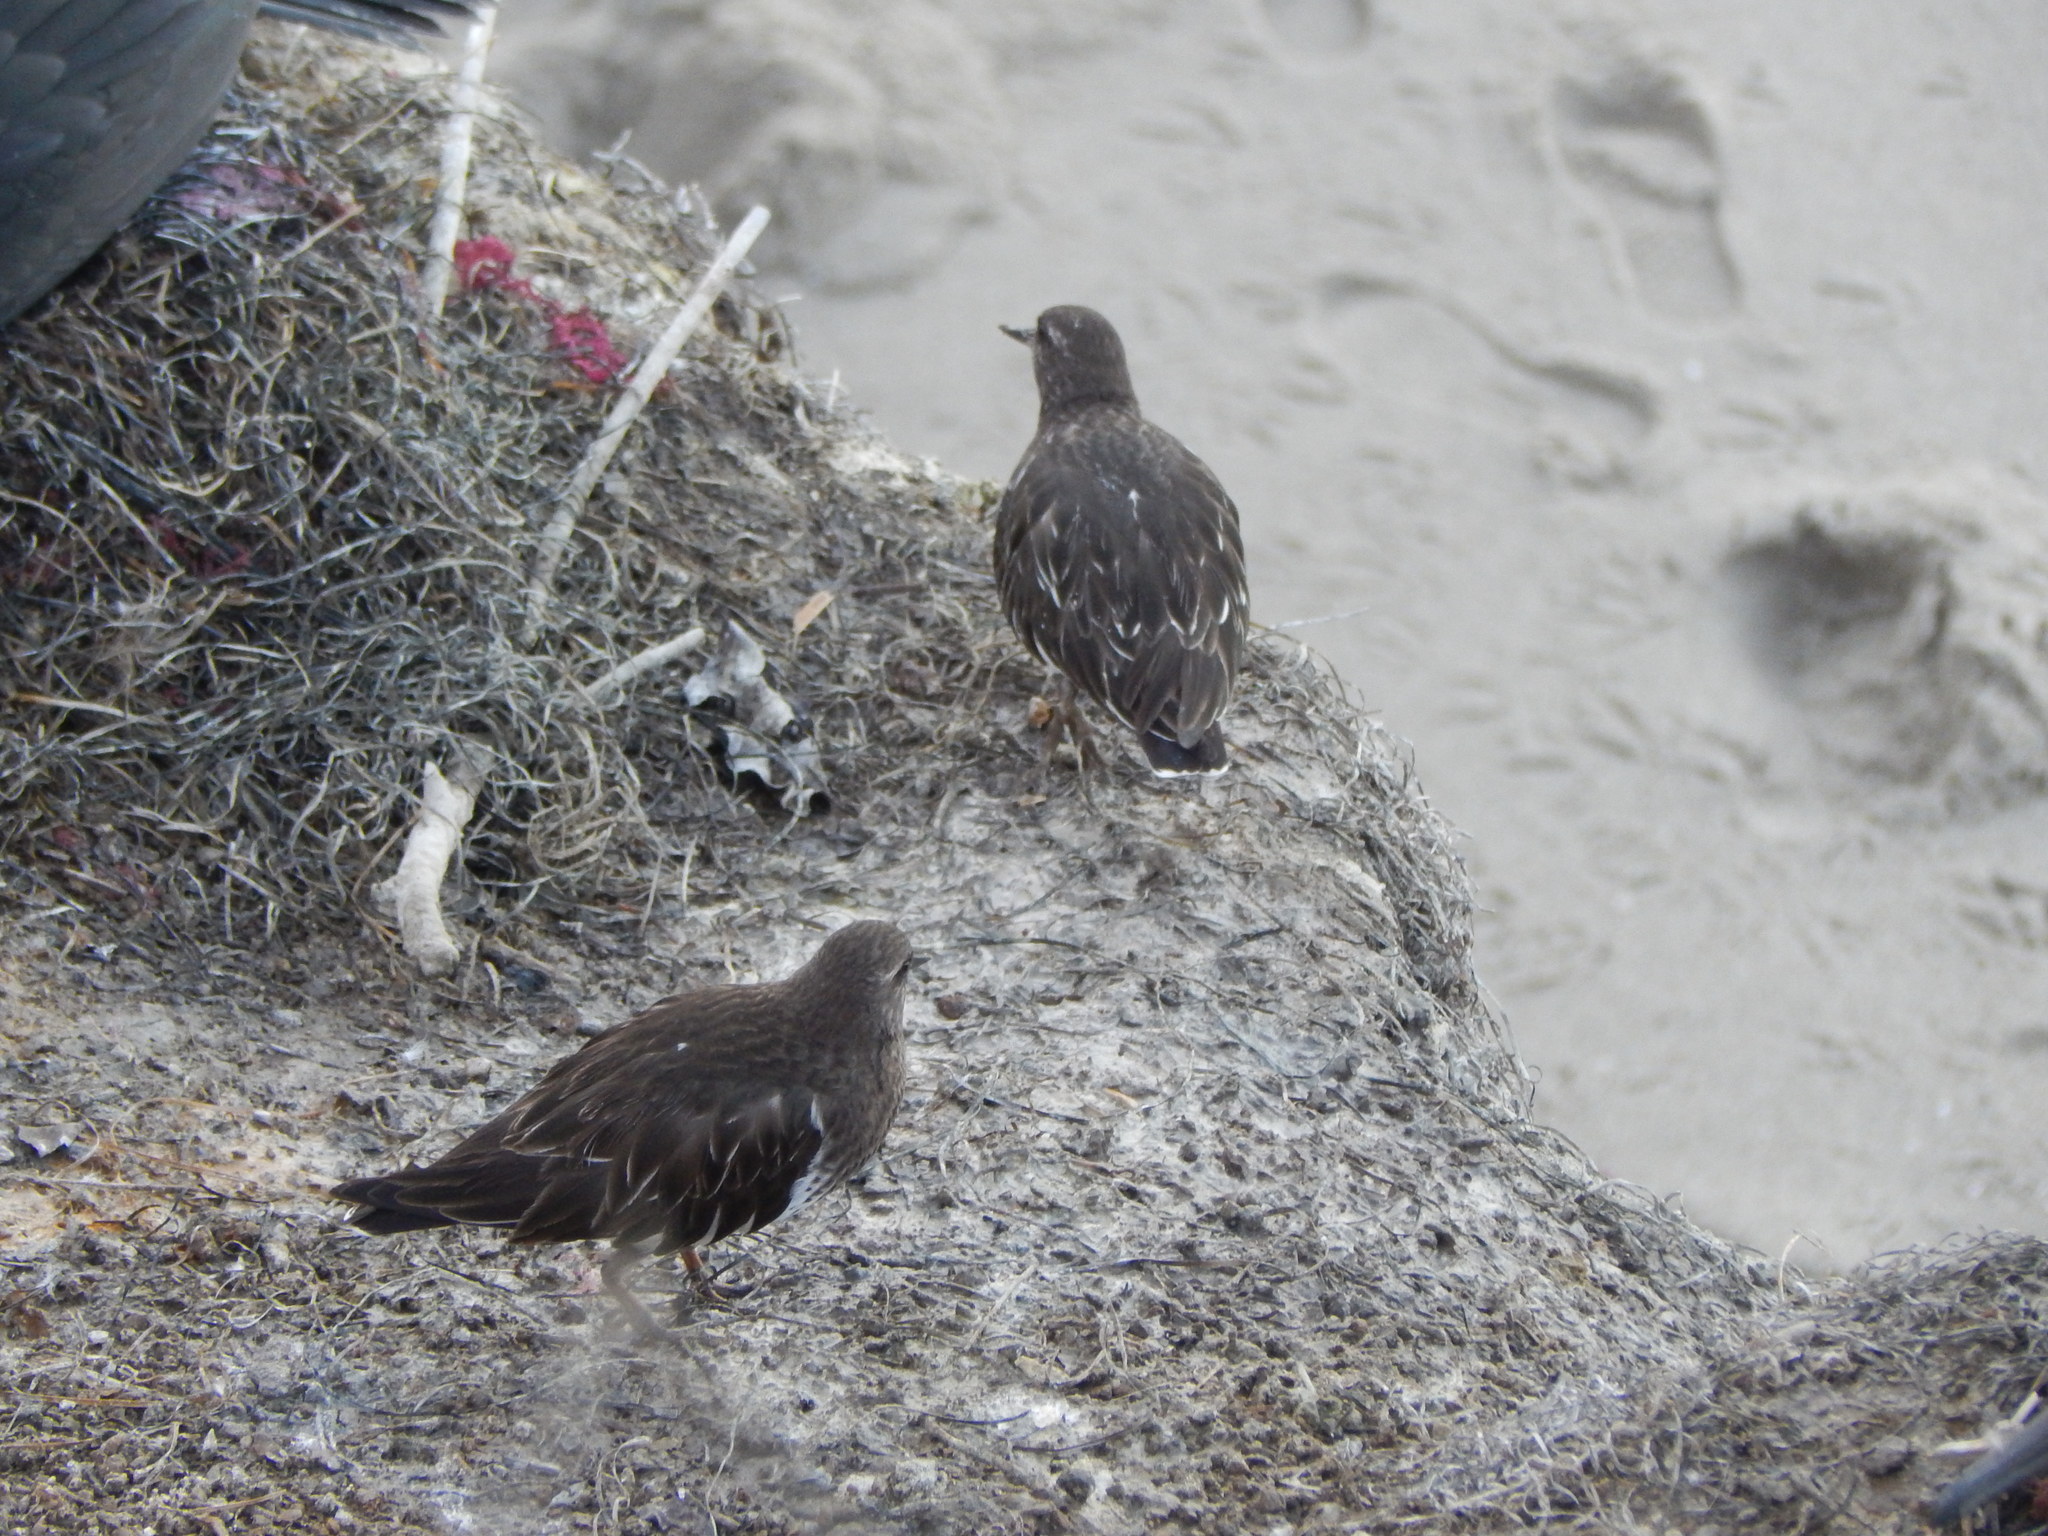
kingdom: Animalia
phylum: Chordata
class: Aves
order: Charadriiformes
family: Scolopacidae
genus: Arenaria
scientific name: Arenaria melanocephala
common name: Black turnstone
